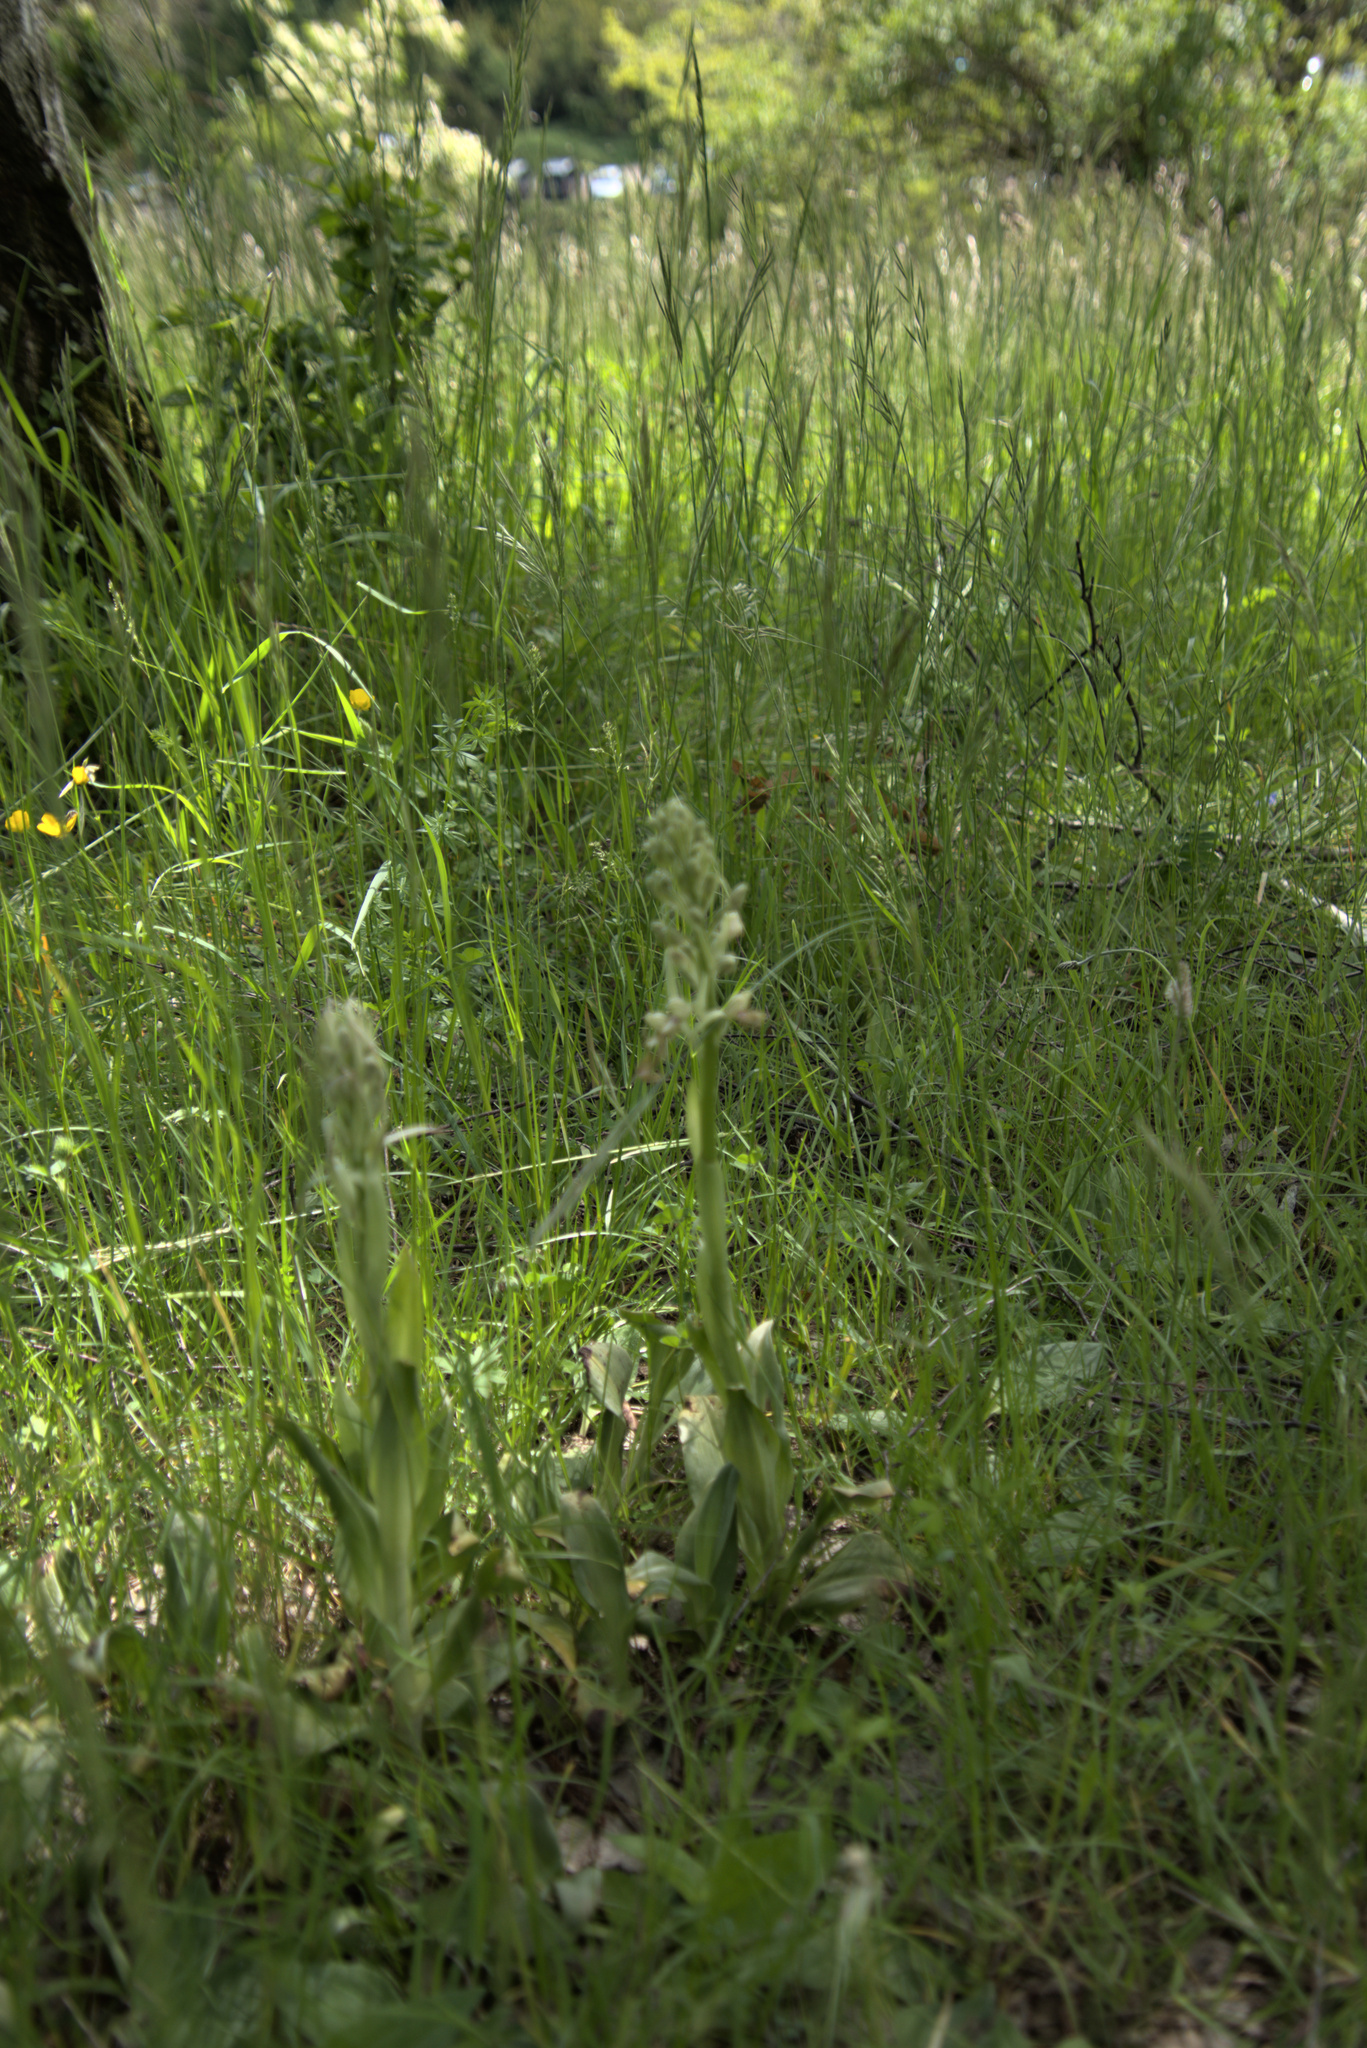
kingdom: Plantae
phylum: Tracheophyta
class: Liliopsida
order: Asparagales
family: Orchidaceae
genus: Himantoglossum
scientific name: Himantoglossum hircinum
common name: Lizard orchid
